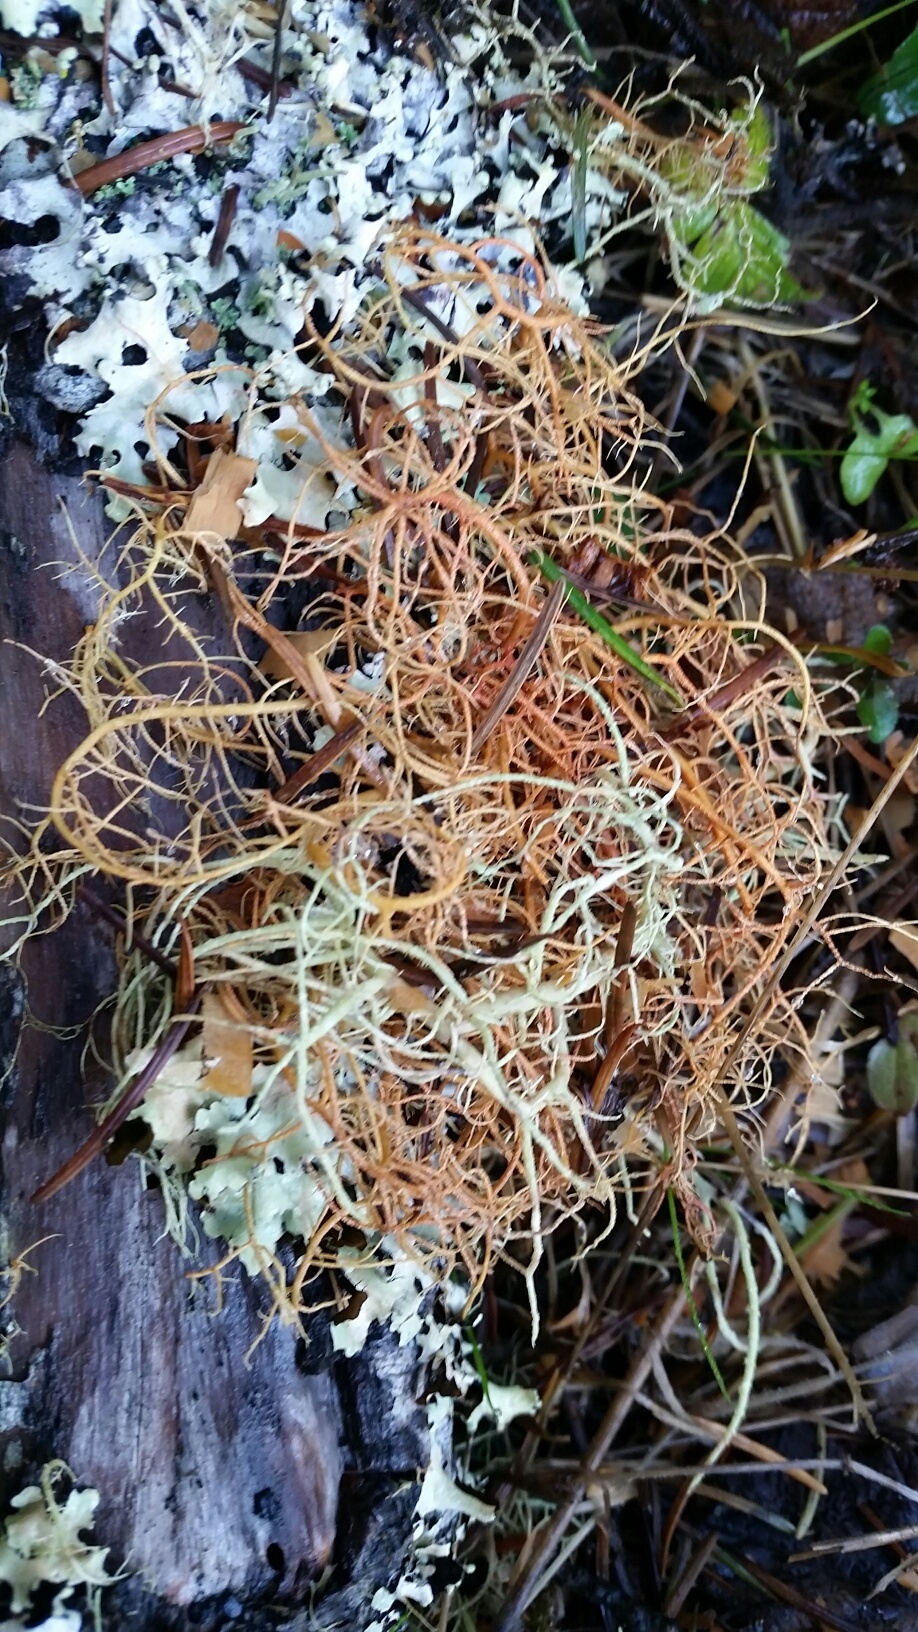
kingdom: Fungi
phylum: Ascomycota
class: Lecanoromycetes
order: Lecanorales
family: Parmeliaceae
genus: Usnea
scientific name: Usnea rubicunda
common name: Red beard lichen
